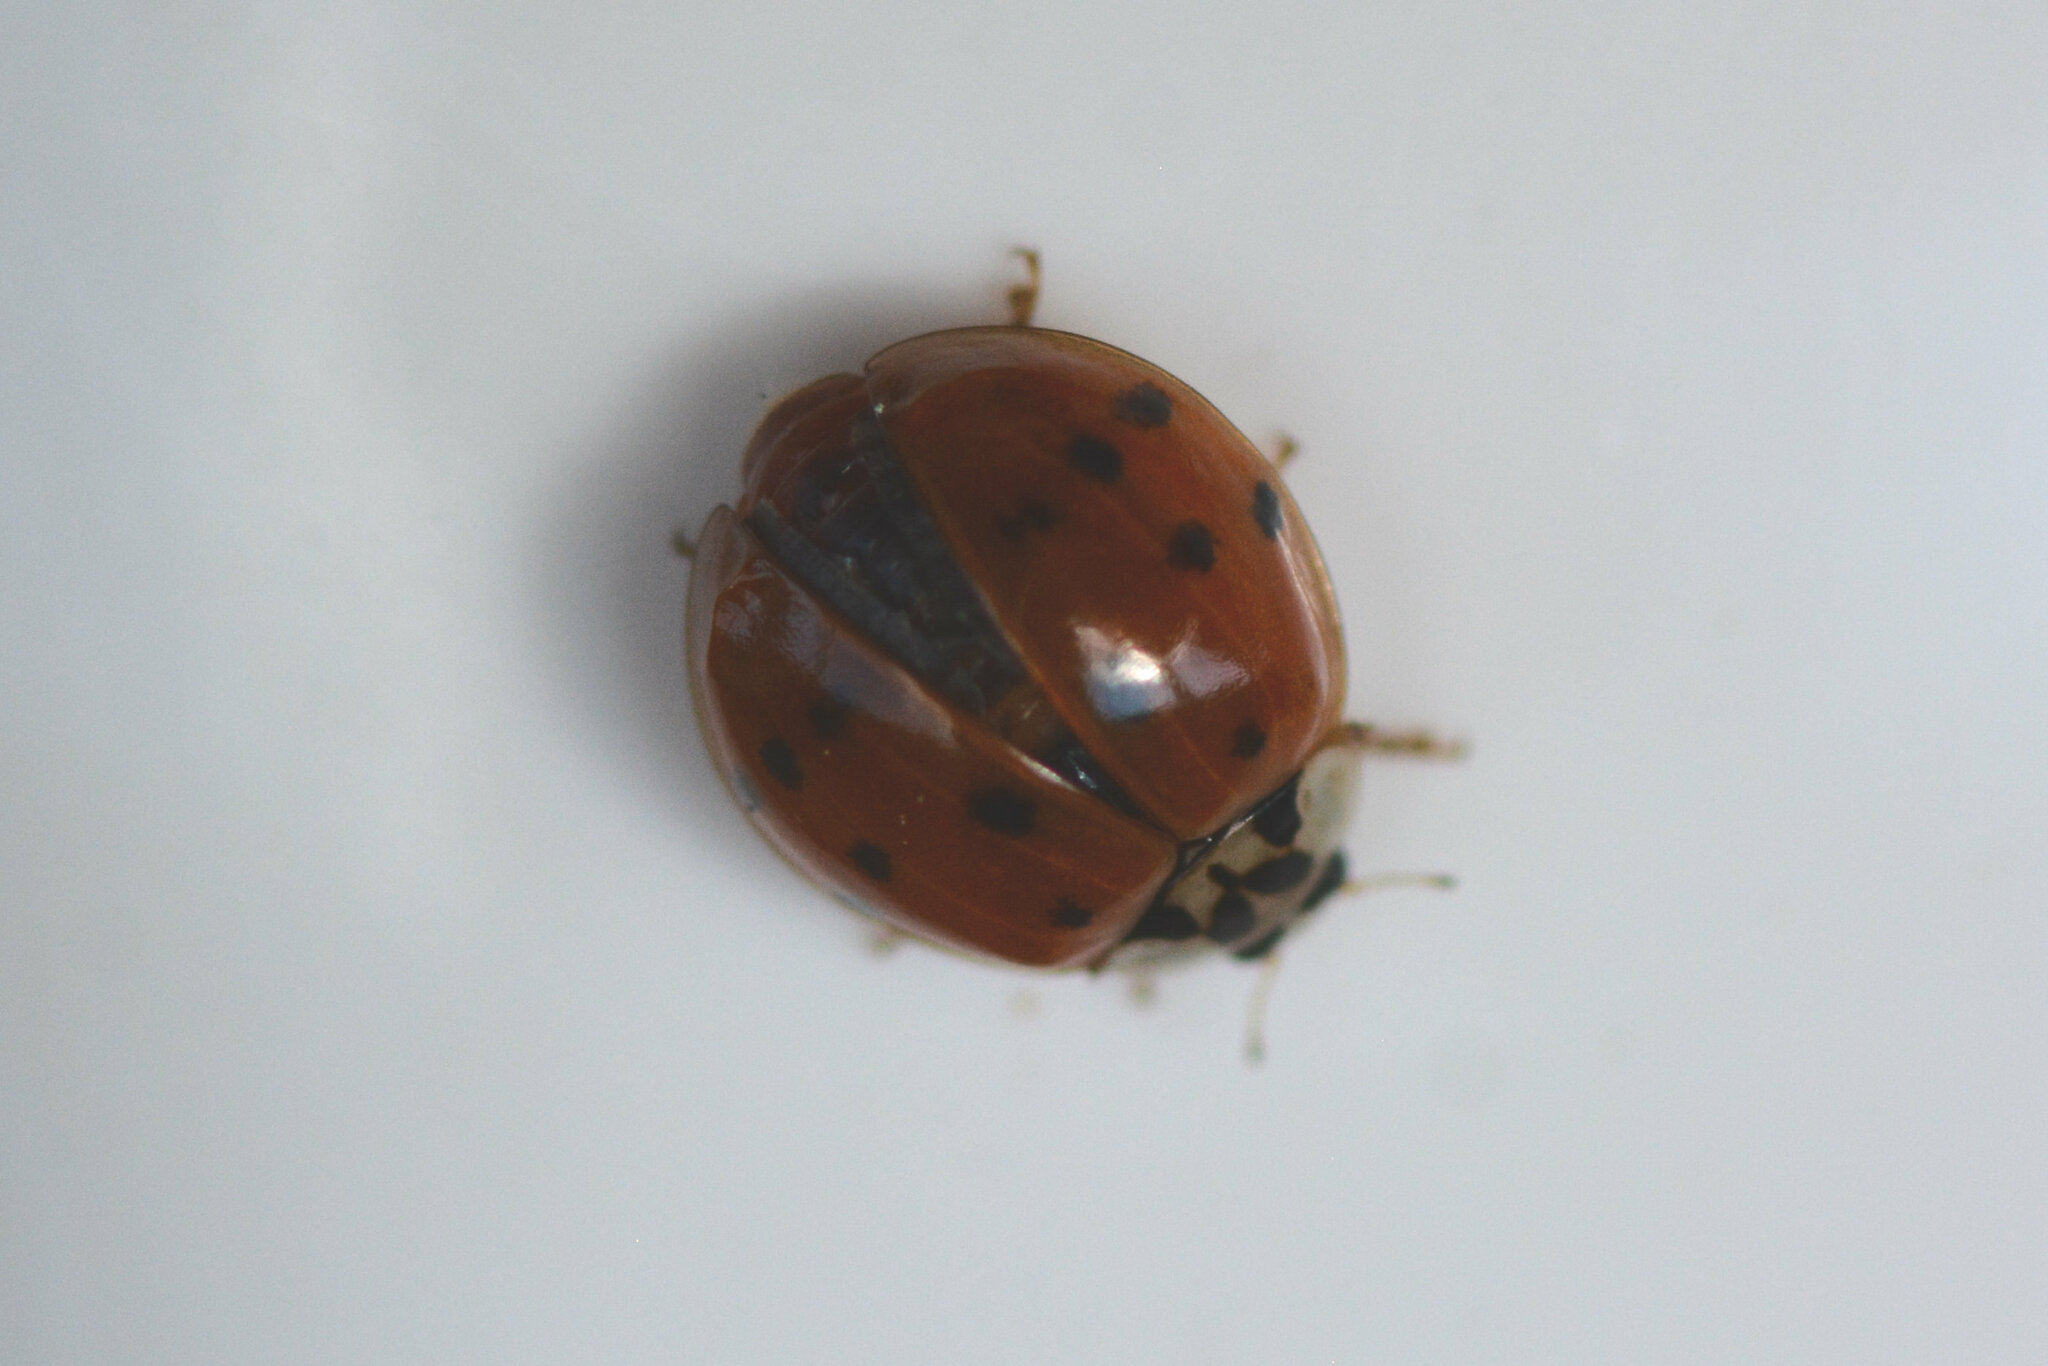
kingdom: Animalia
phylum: Arthropoda
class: Insecta
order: Coleoptera
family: Coccinellidae
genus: Harmonia
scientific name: Harmonia axyridis
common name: Harlequin ladybird
